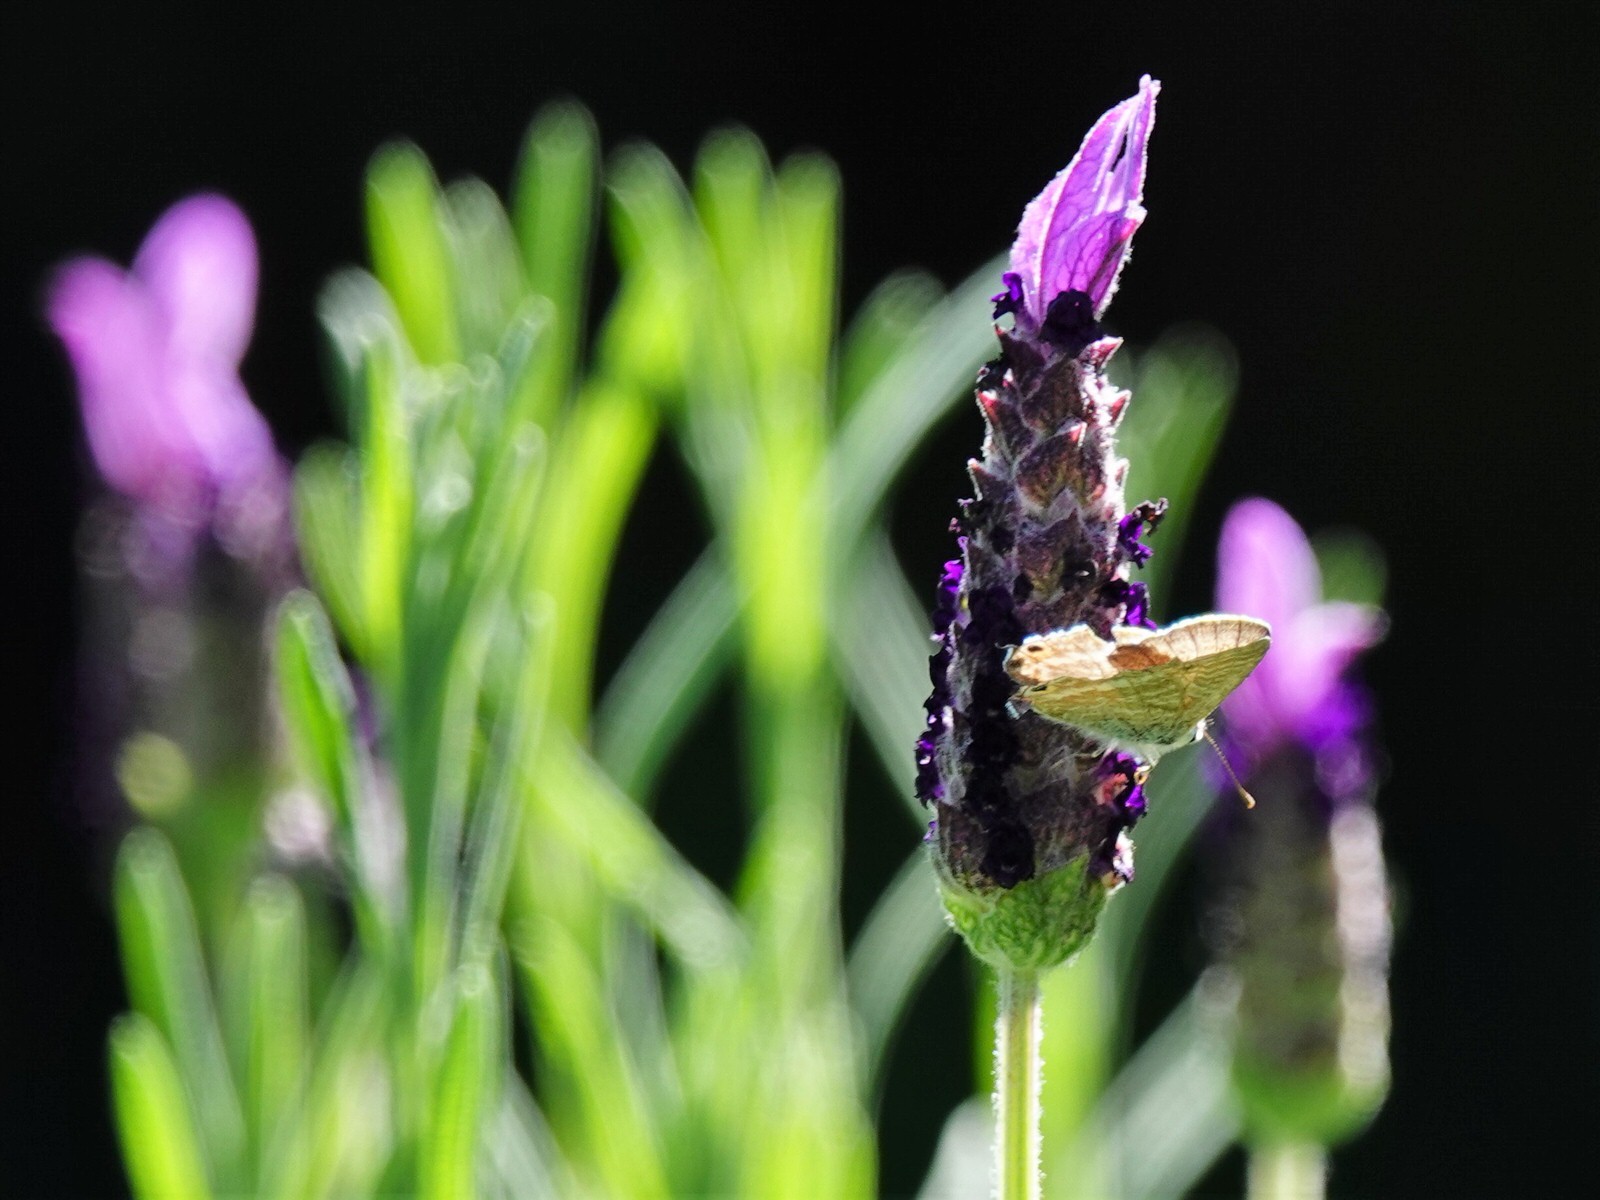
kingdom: Animalia
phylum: Arthropoda
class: Insecta
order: Lepidoptera
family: Lycaenidae
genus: Lampides
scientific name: Lampides boeticus
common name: Long-tailed blue
